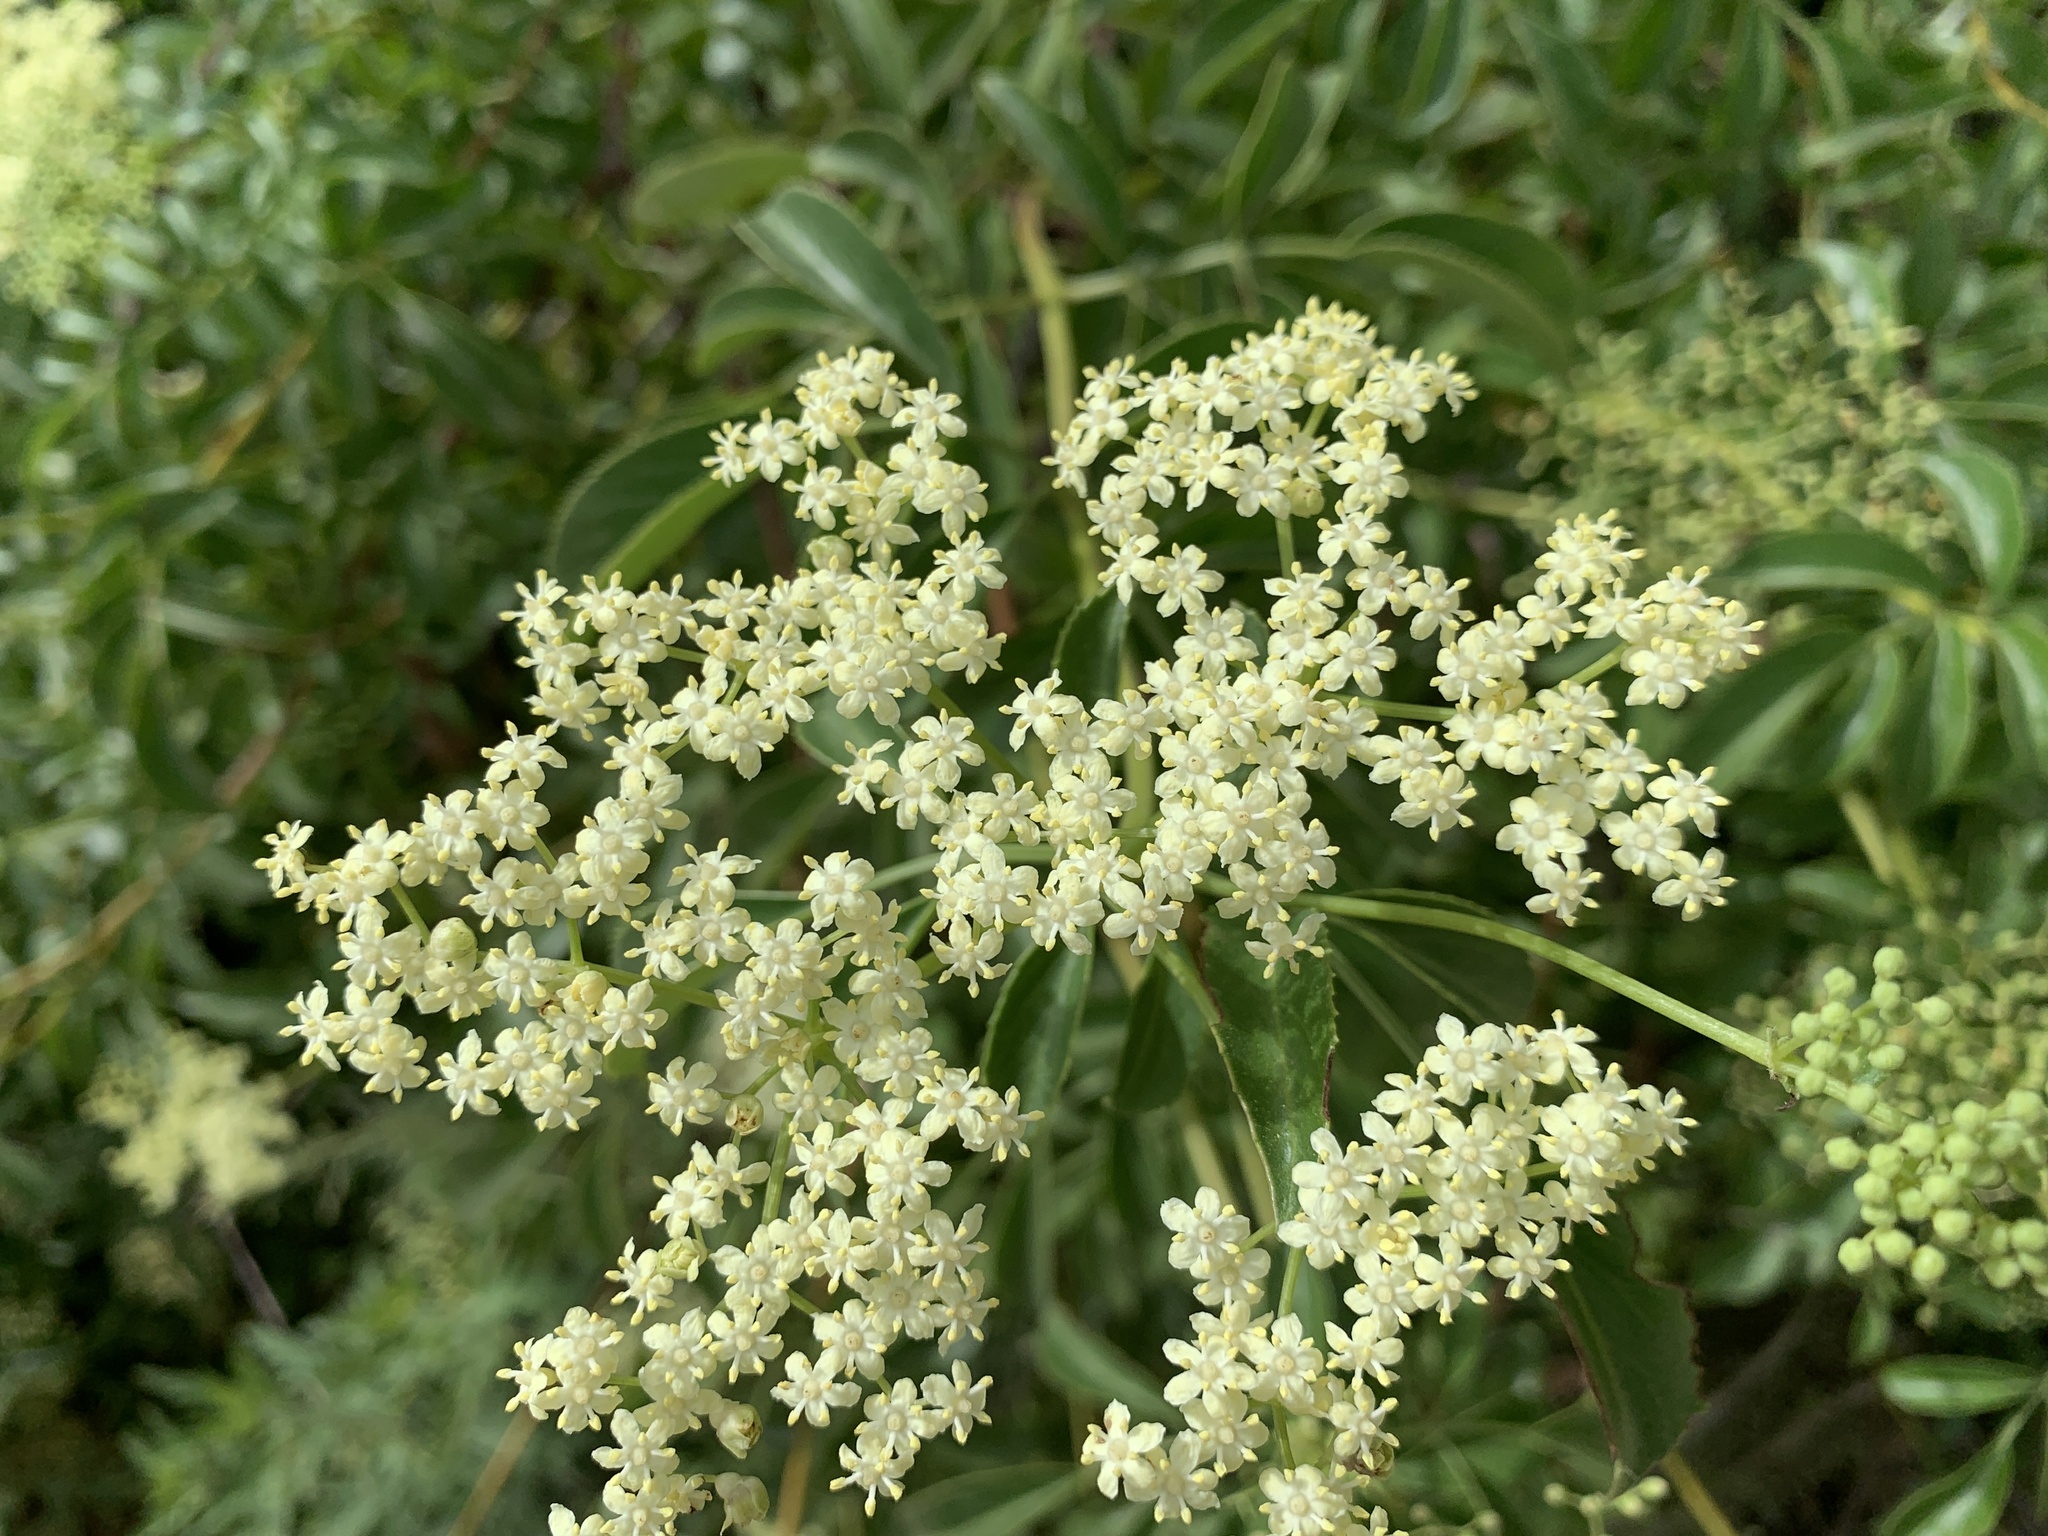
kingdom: Plantae
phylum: Tracheophyta
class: Magnoliopsida
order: Dipsacales
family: Viburnaceae
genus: Sambucus
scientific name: Sambucus cerulea
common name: Blue elder
